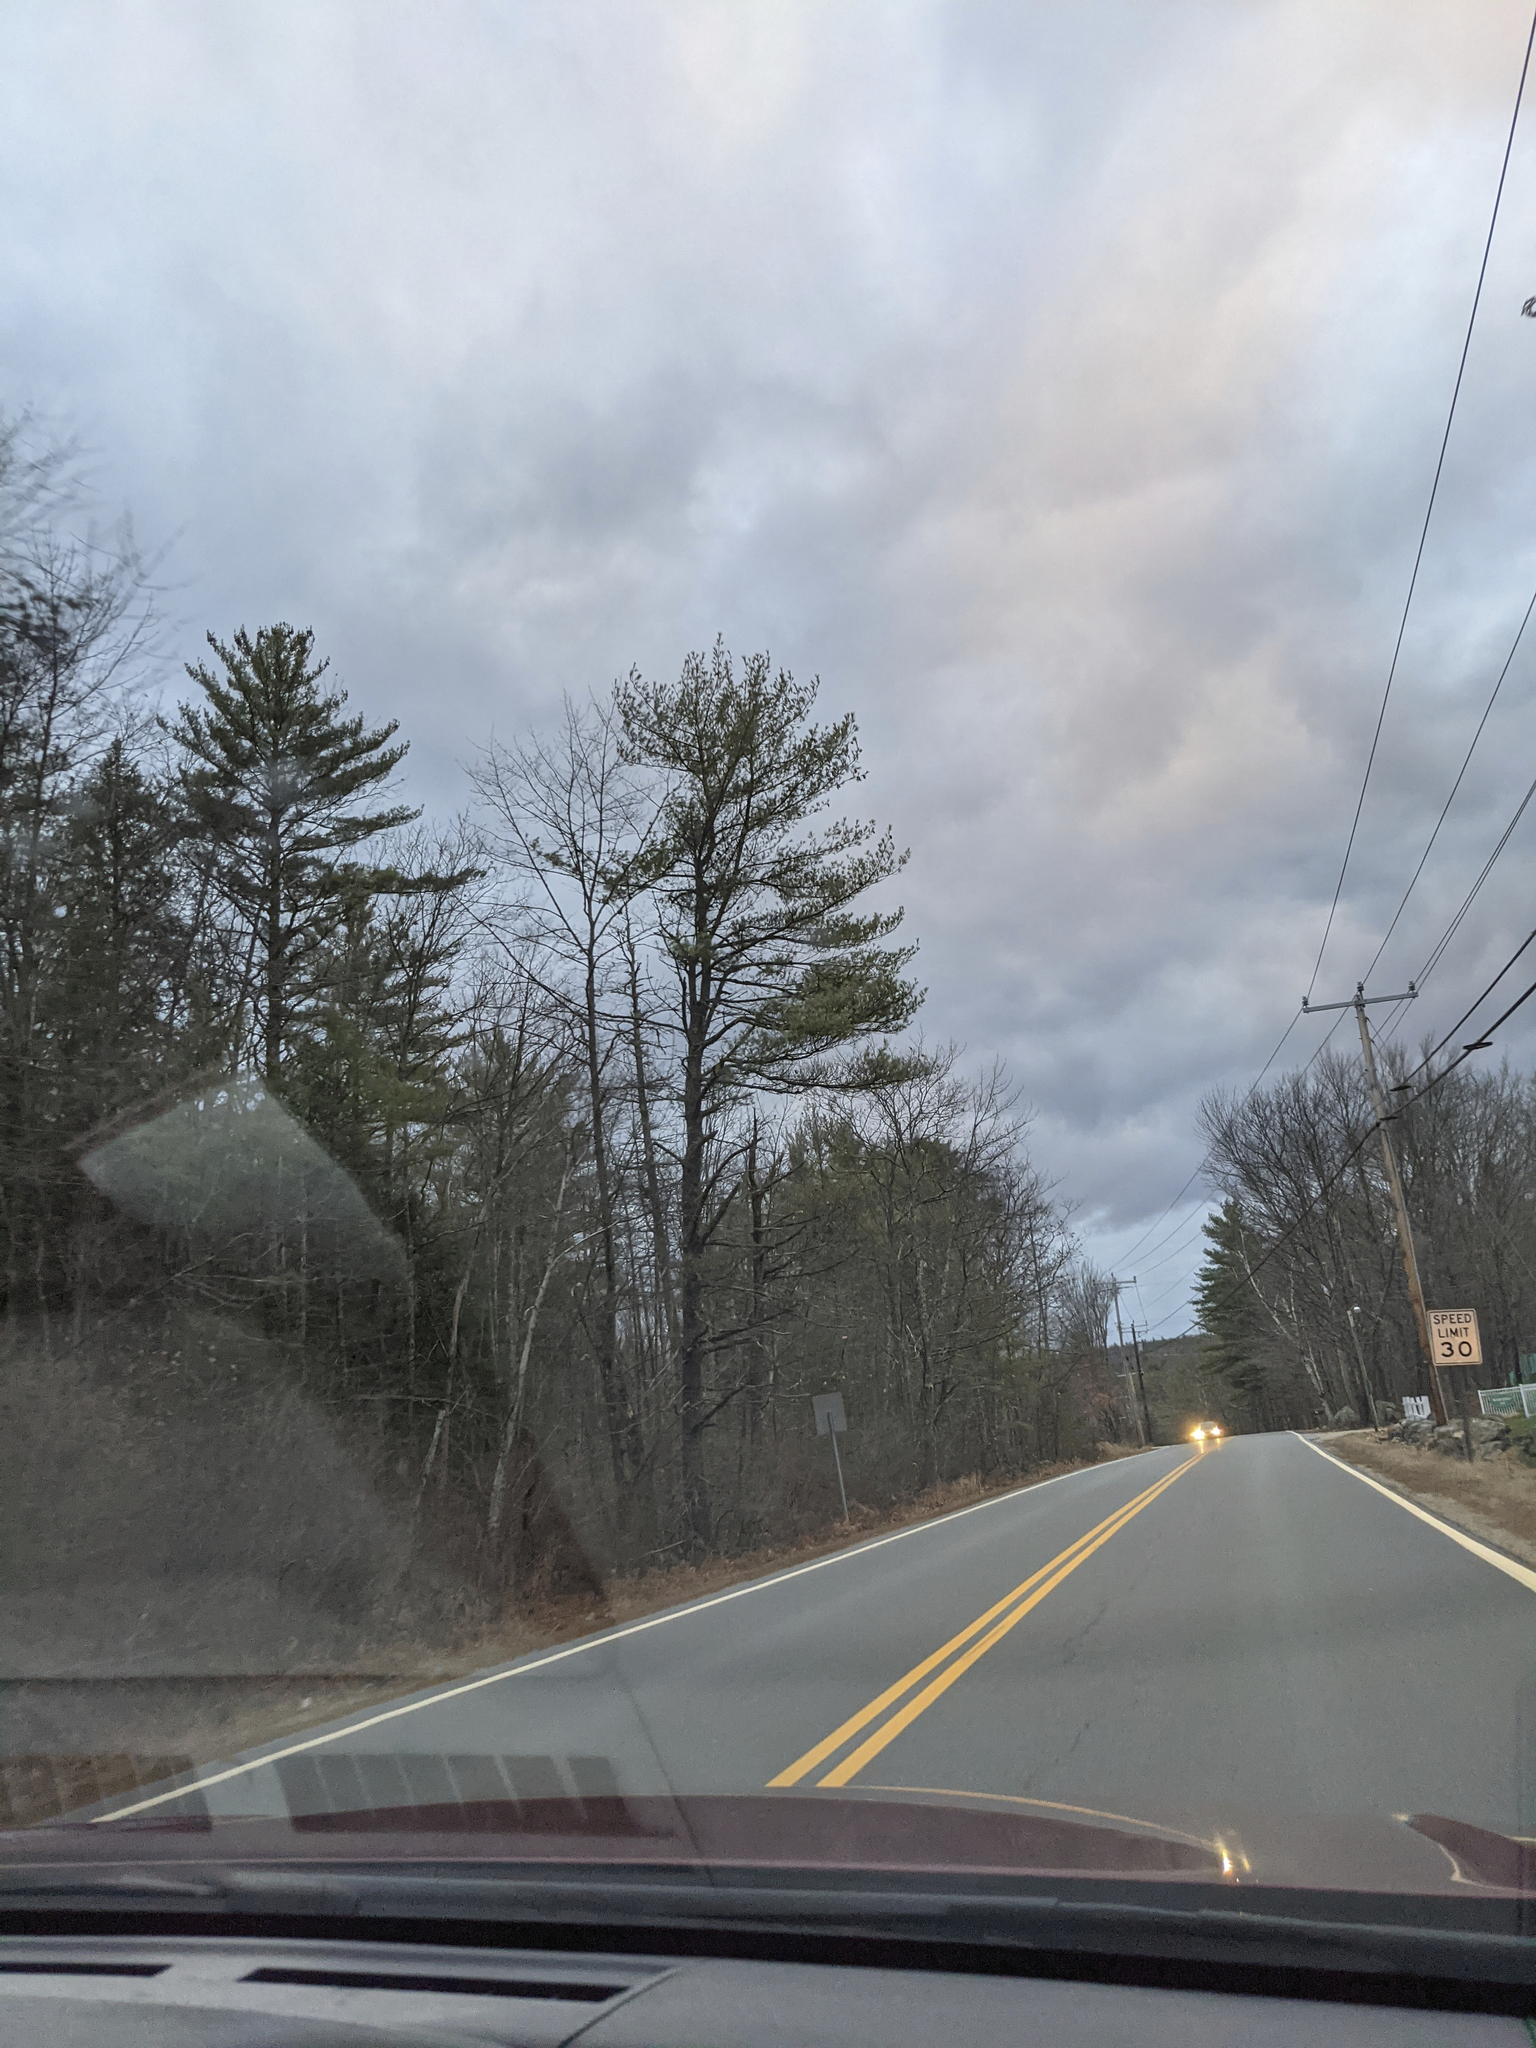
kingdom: Plantae
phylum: Tracheophyta
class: Pinopsida
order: Pinales
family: Pinaceae
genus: Pinus
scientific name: Pinus strobus
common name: Weymouth pine
